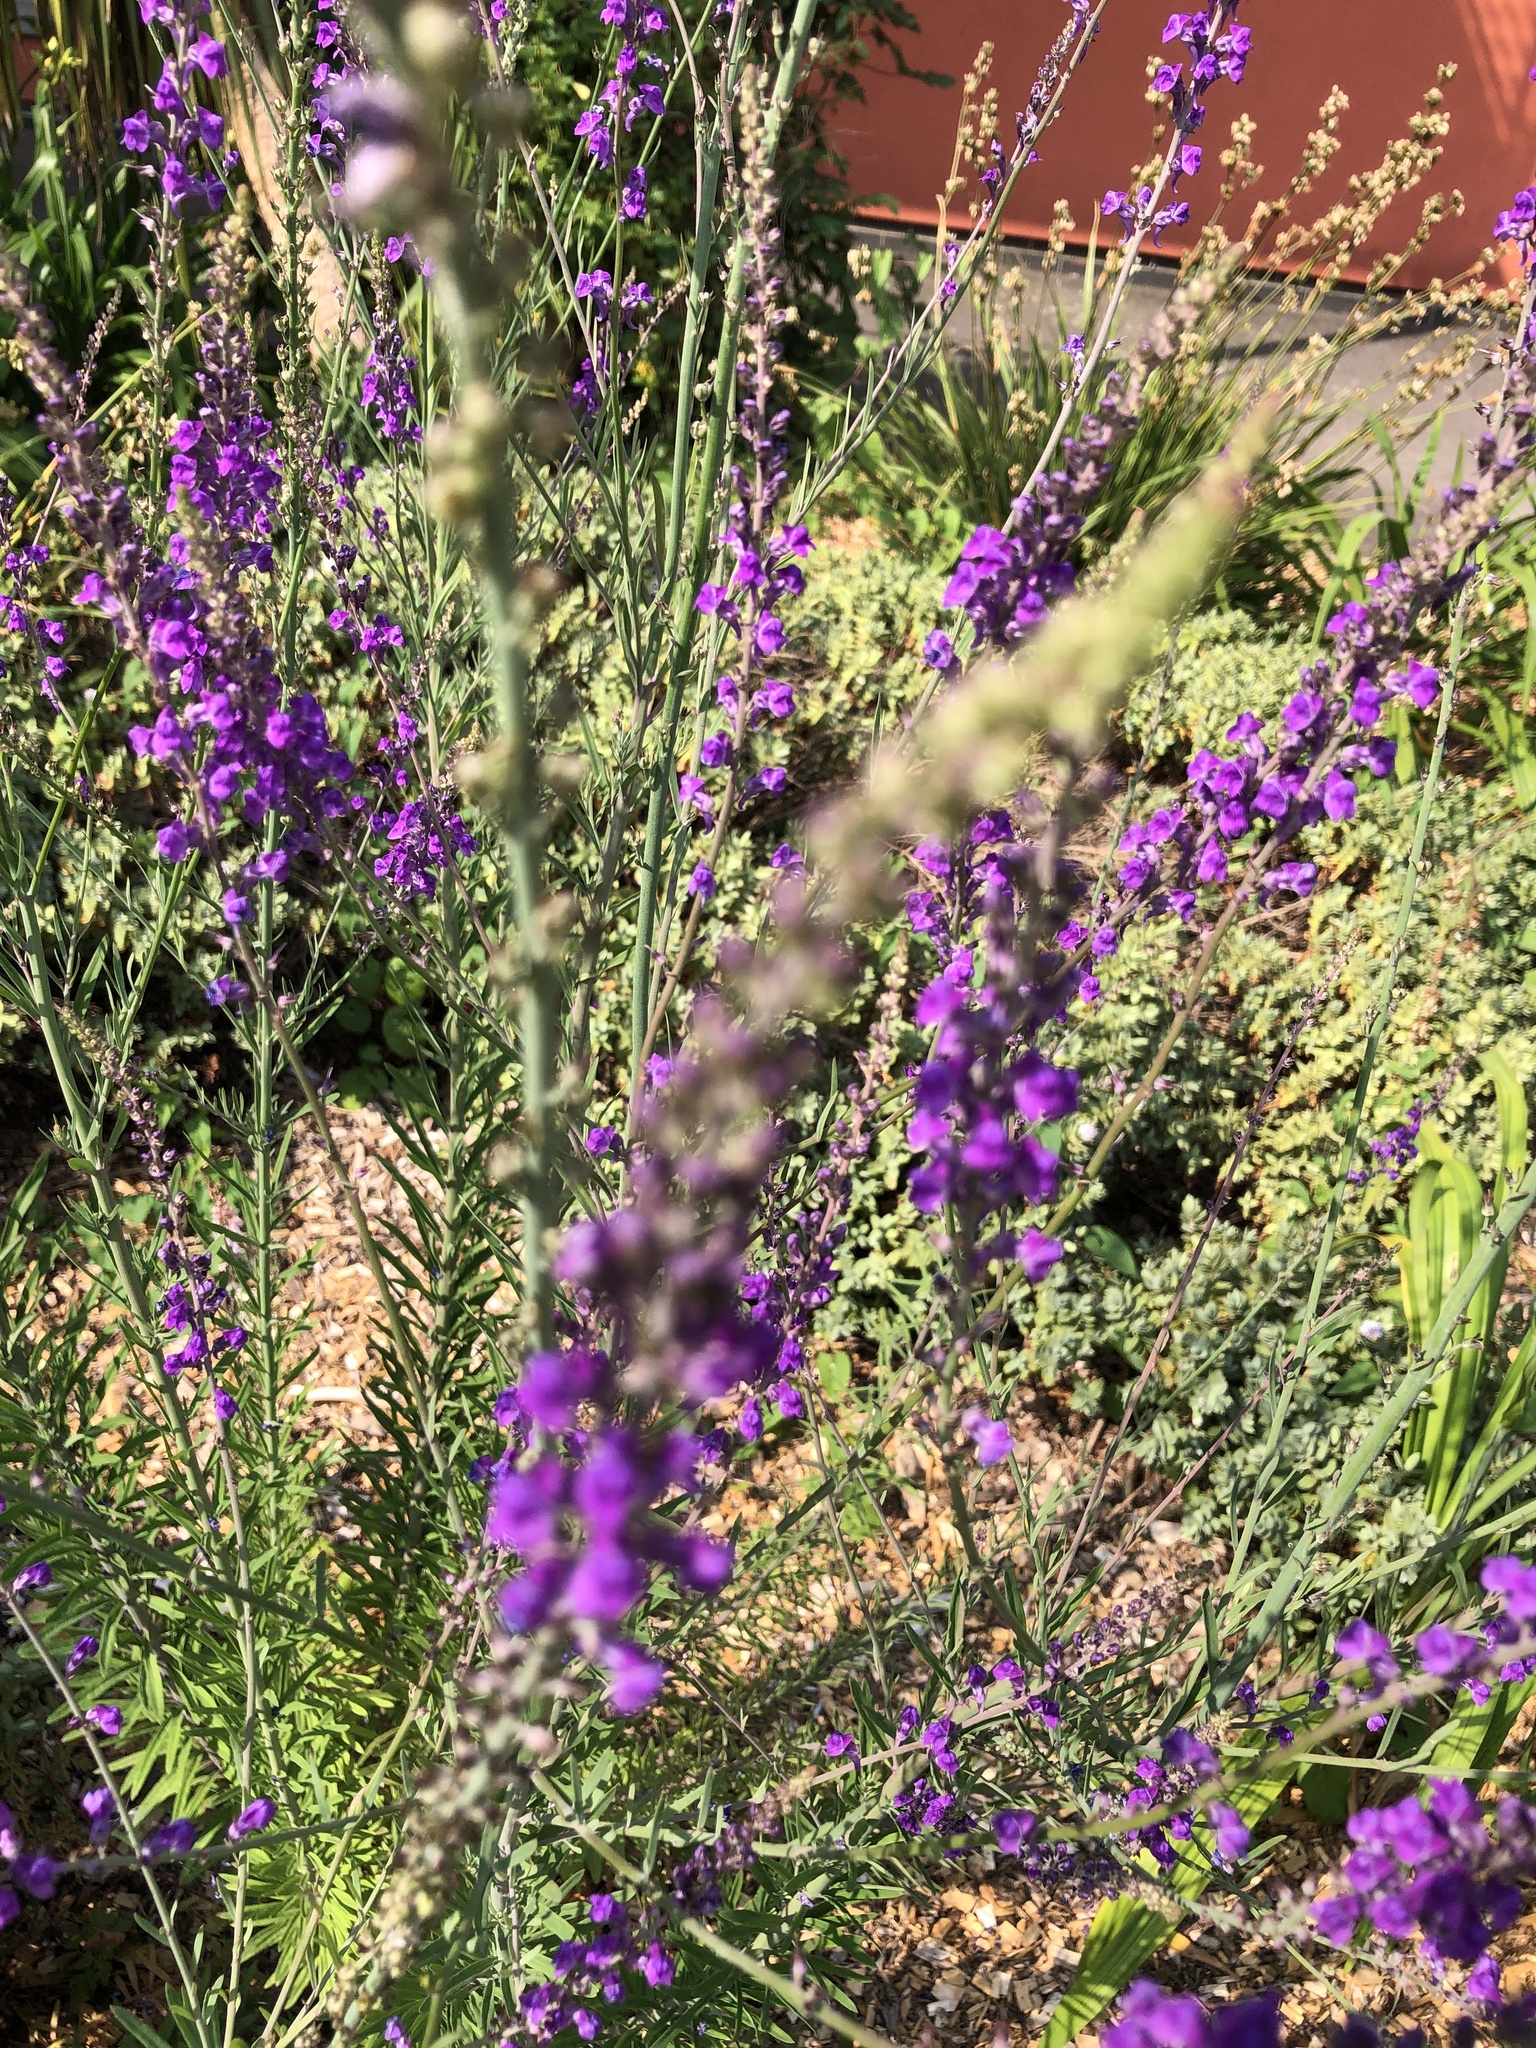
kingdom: Plantae
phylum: Tracheophyta
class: Magnoliopsida
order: Lamiales
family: Plantaginaceae
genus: Linaria
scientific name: Linaria purpurea
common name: Purple toadflax
